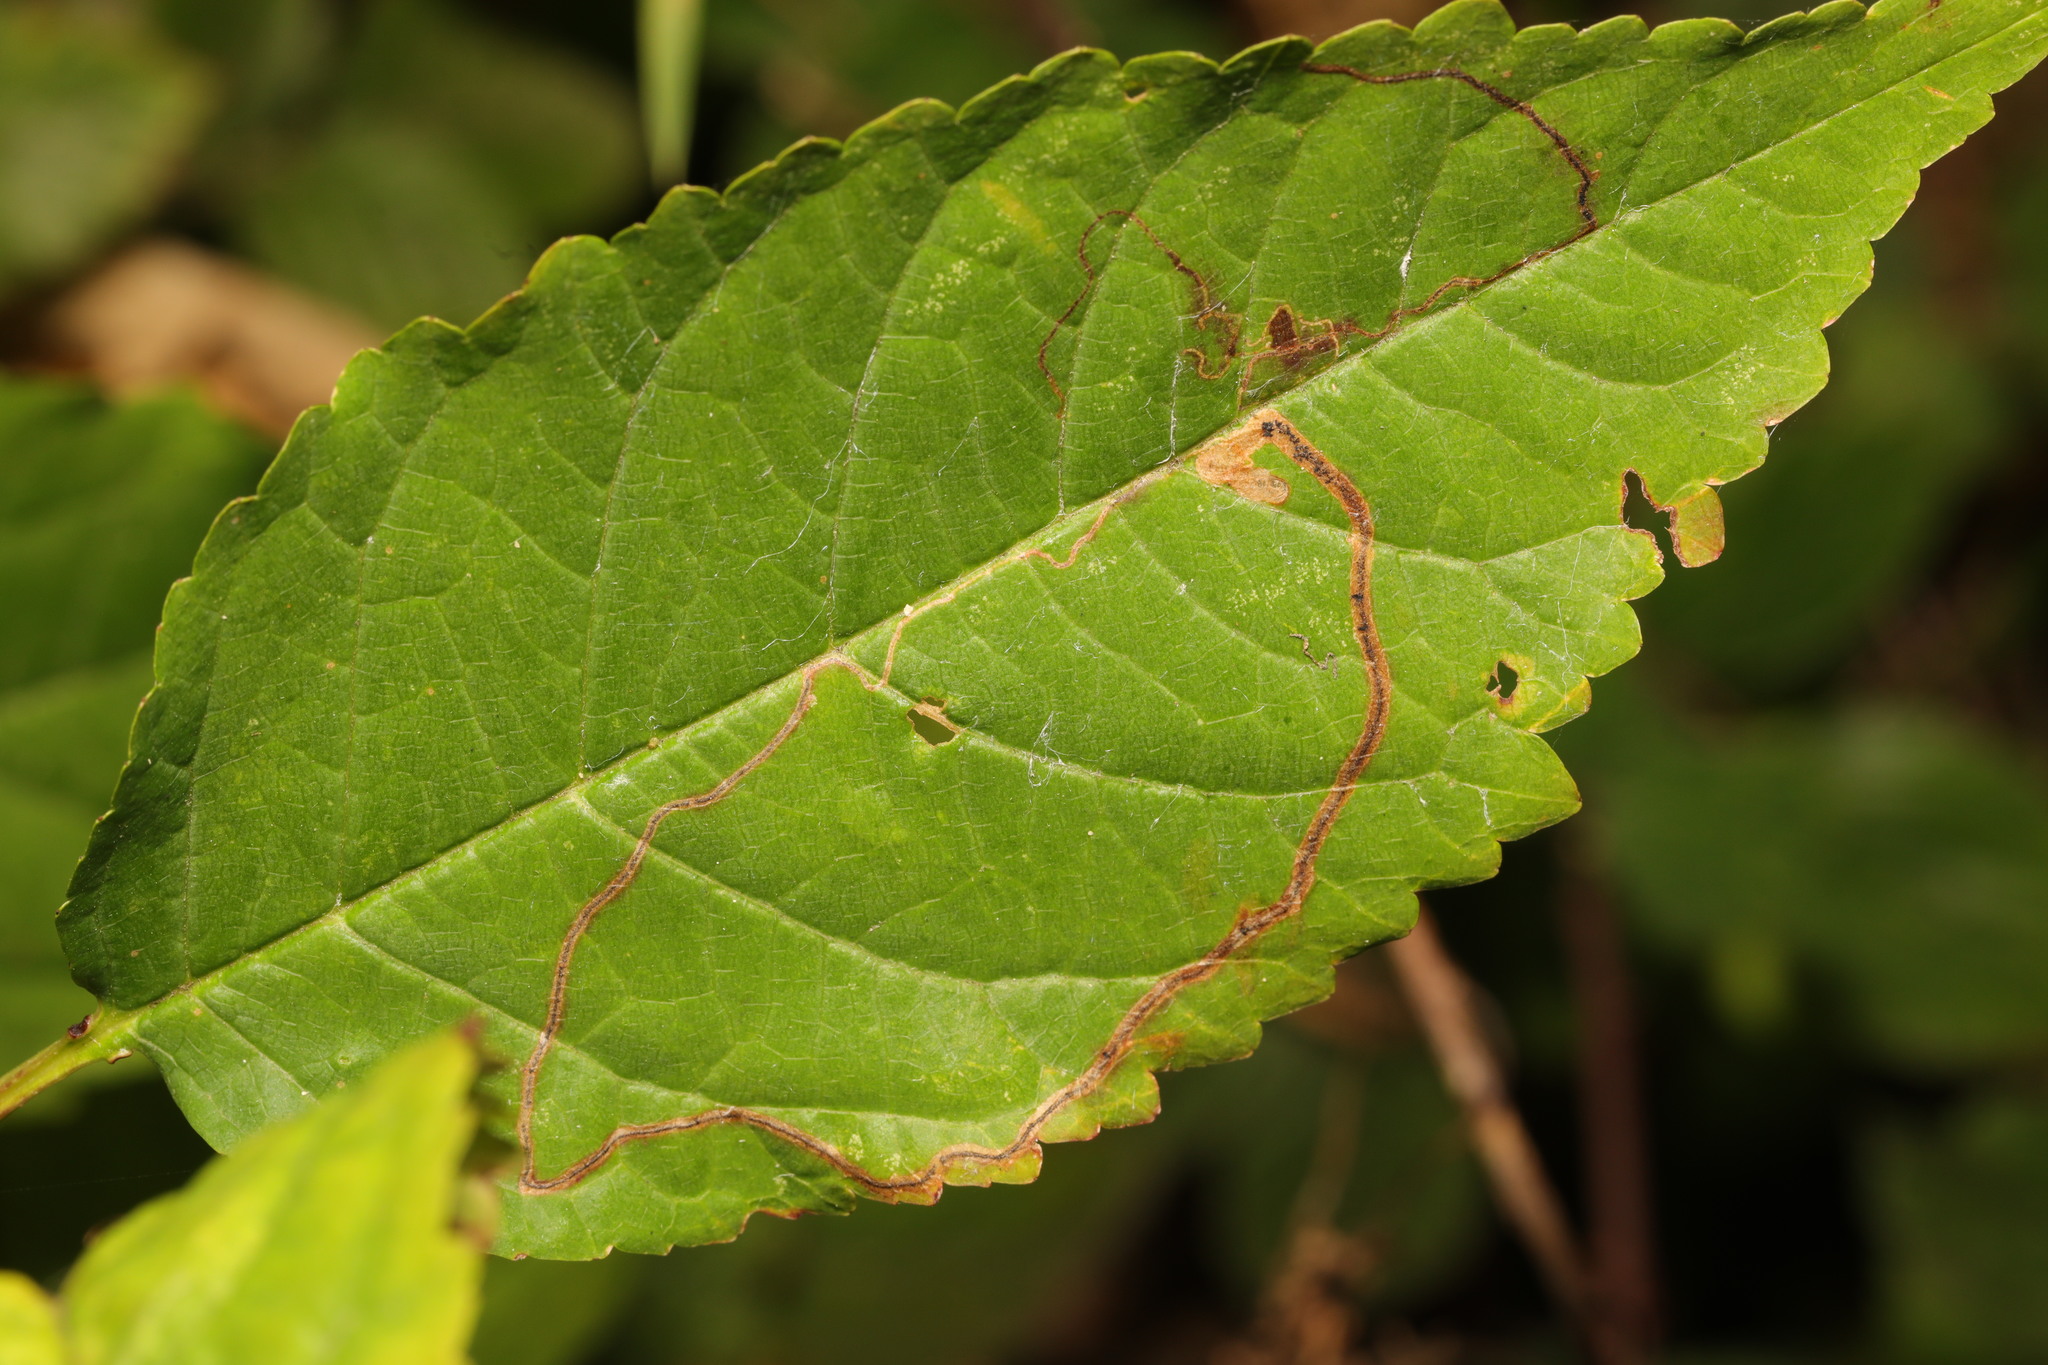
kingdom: Animalia
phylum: Arthropoda
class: Insecta
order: Lepidoptera
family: Lyonetiidae
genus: Lyonetia
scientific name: Lyonetia clerkella
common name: Apple leaf miner
